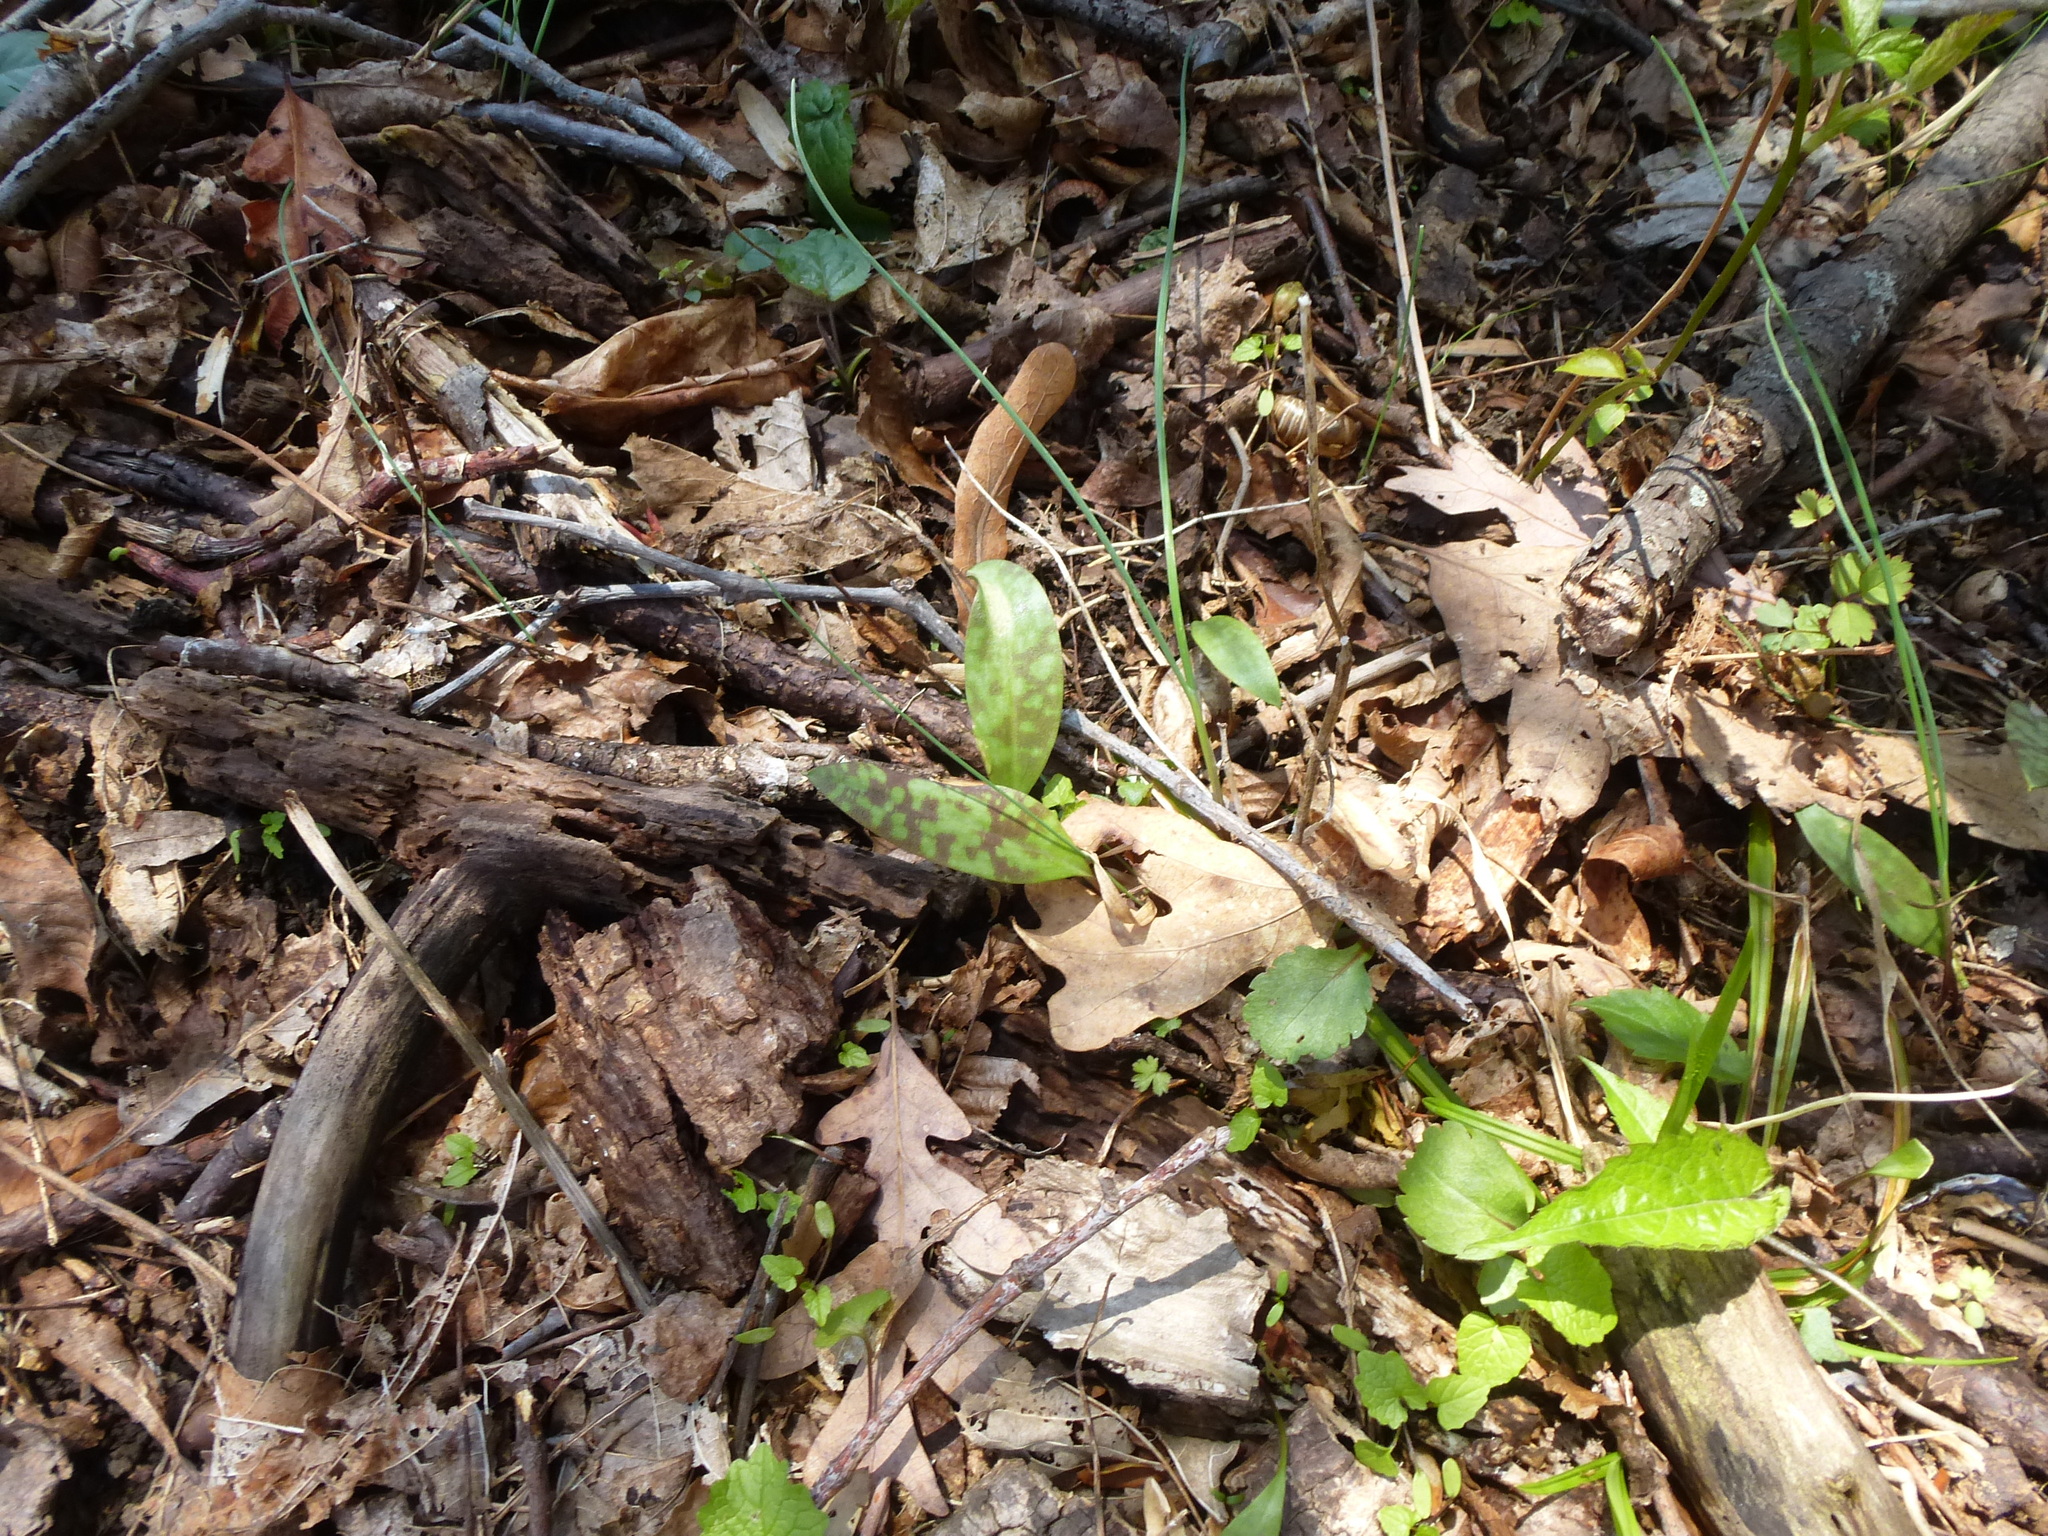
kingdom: Plantae
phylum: Tracheophyta
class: Liliopsida
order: Liliales
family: Liliaceae
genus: Erythronium
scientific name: Erythronium americanum
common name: Yellow adder's-tongue
